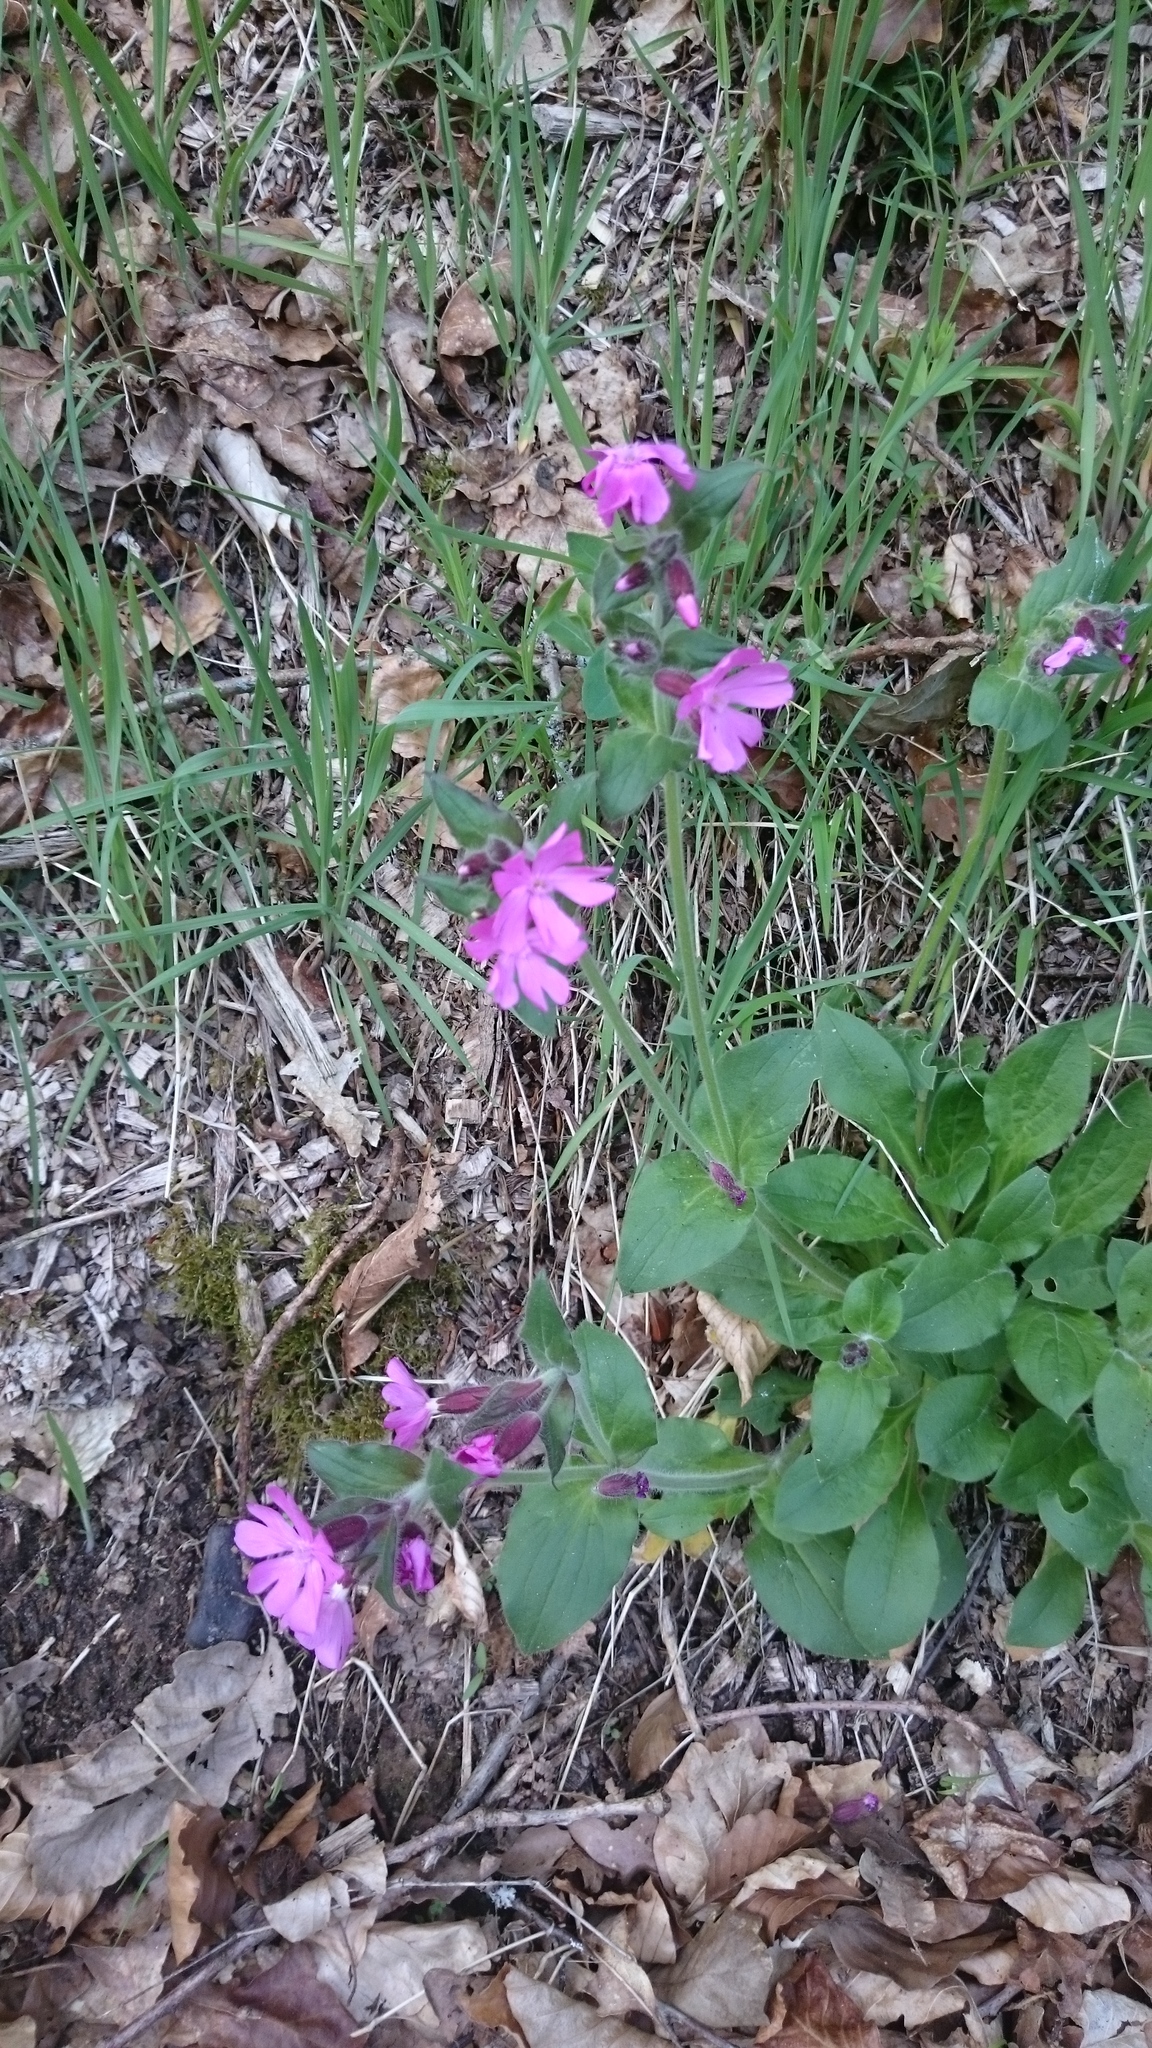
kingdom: Plantae
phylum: Tracheophyta
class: Magnoliopsida
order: Caryophyllales
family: Caryophyllaceae
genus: Silene
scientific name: Silene dioica
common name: Red campion
